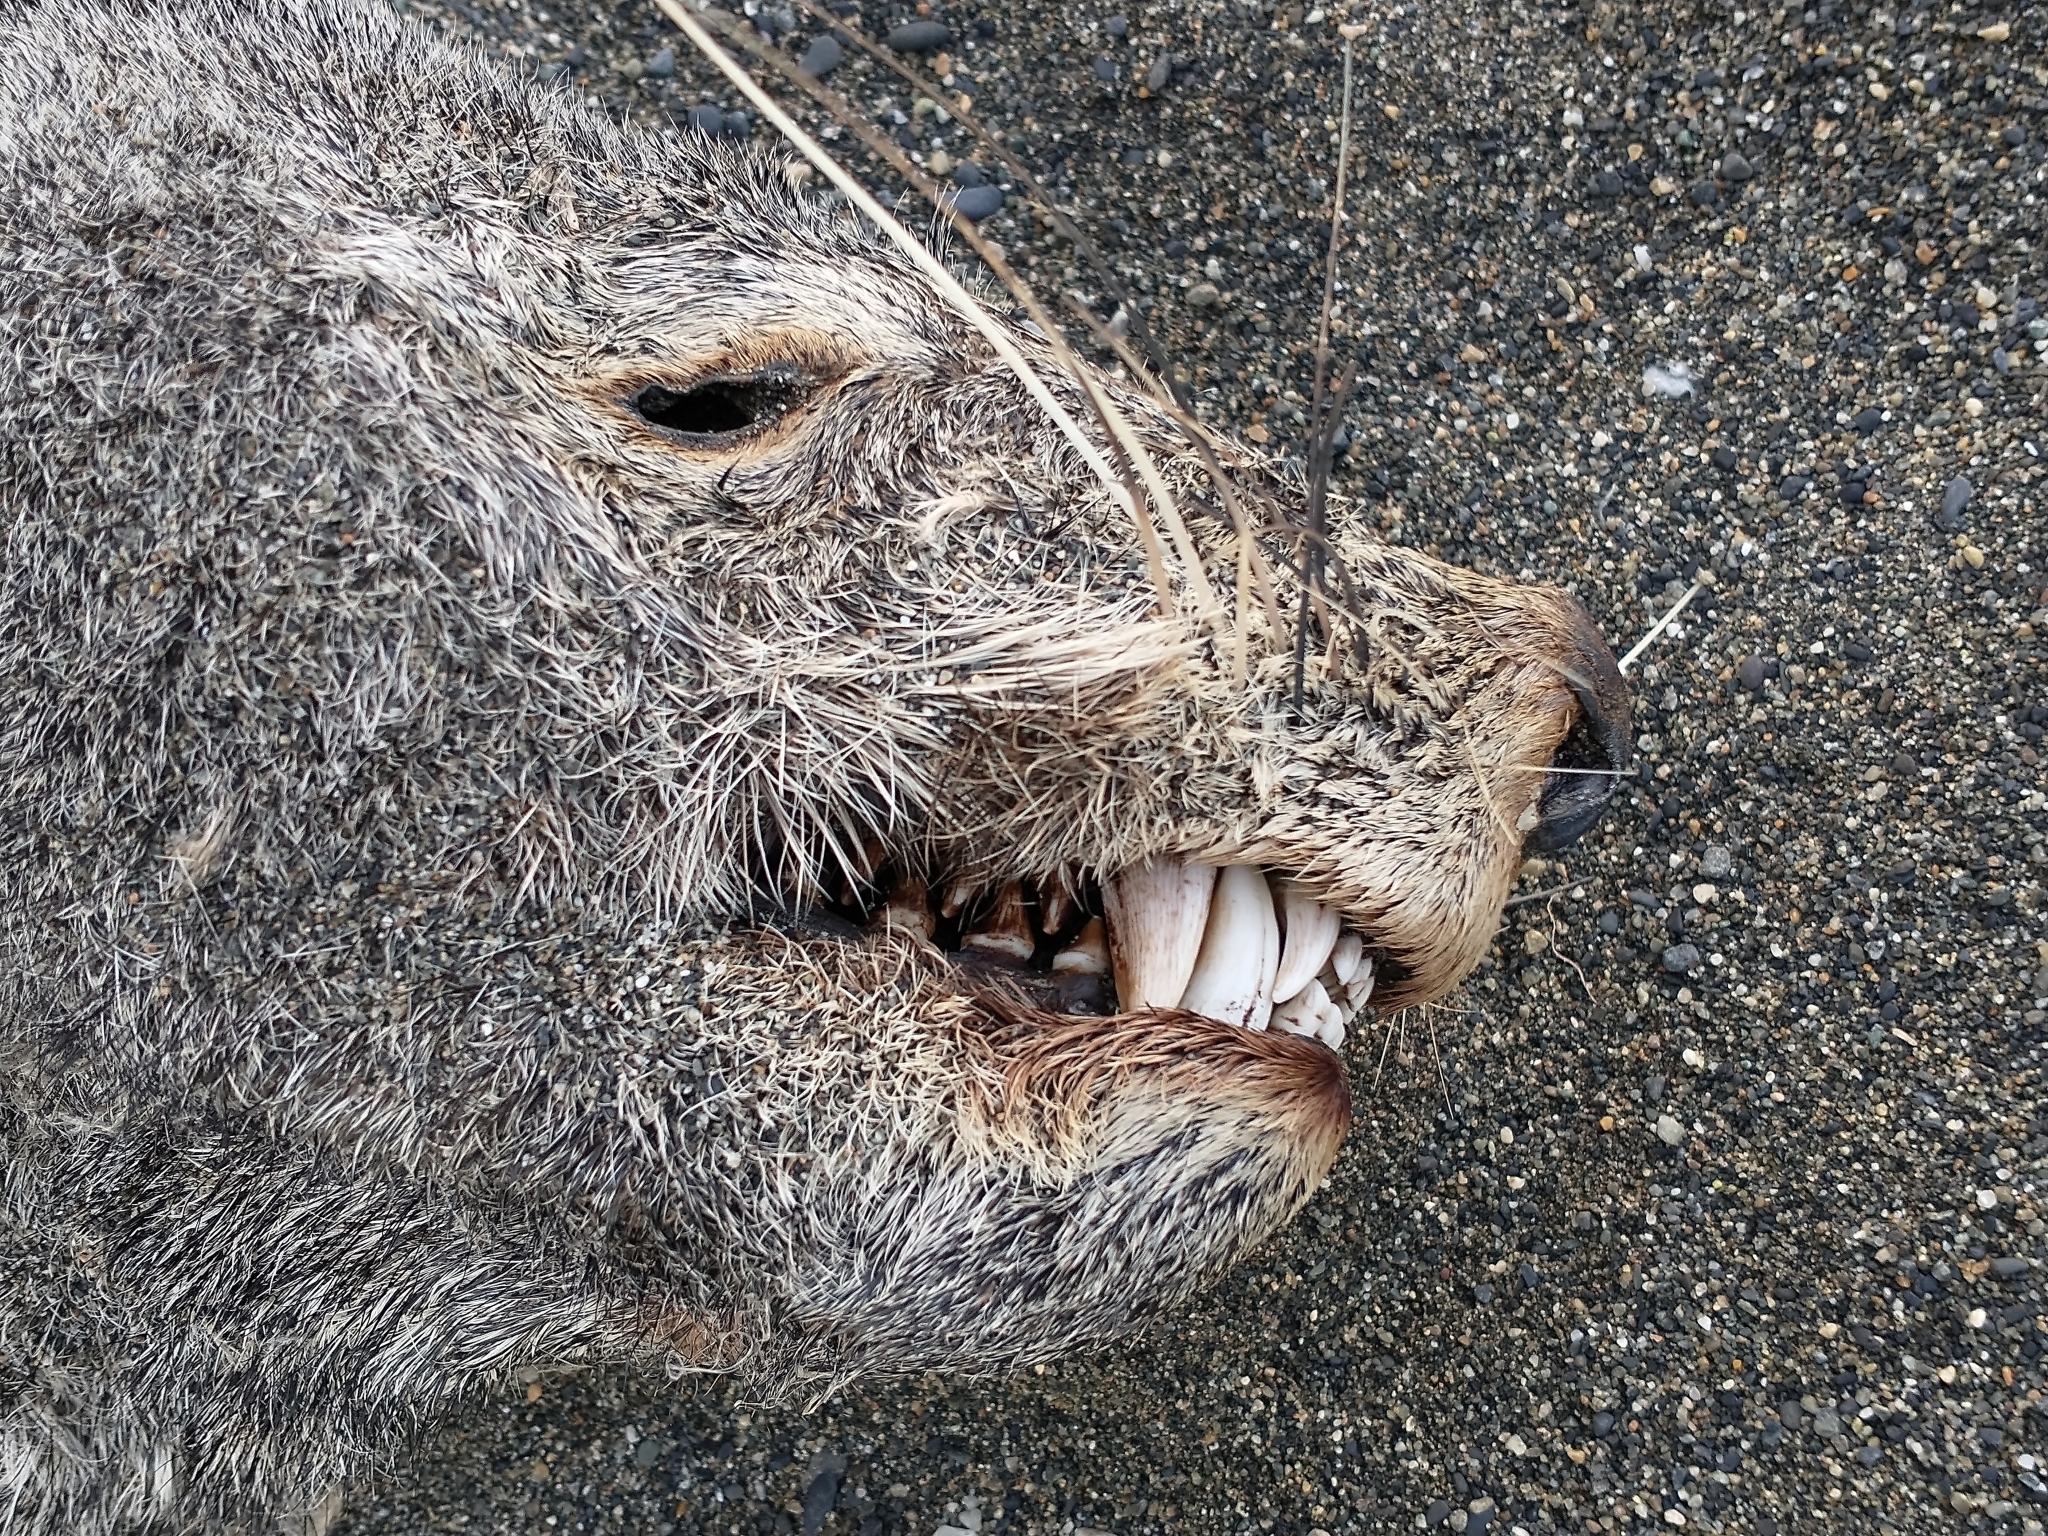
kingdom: Animalia
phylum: Chordata
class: Mammalia
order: Carnivora
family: Otariidae
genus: Arctocephalus
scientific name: Arctocephalus australis
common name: South american fur seal
